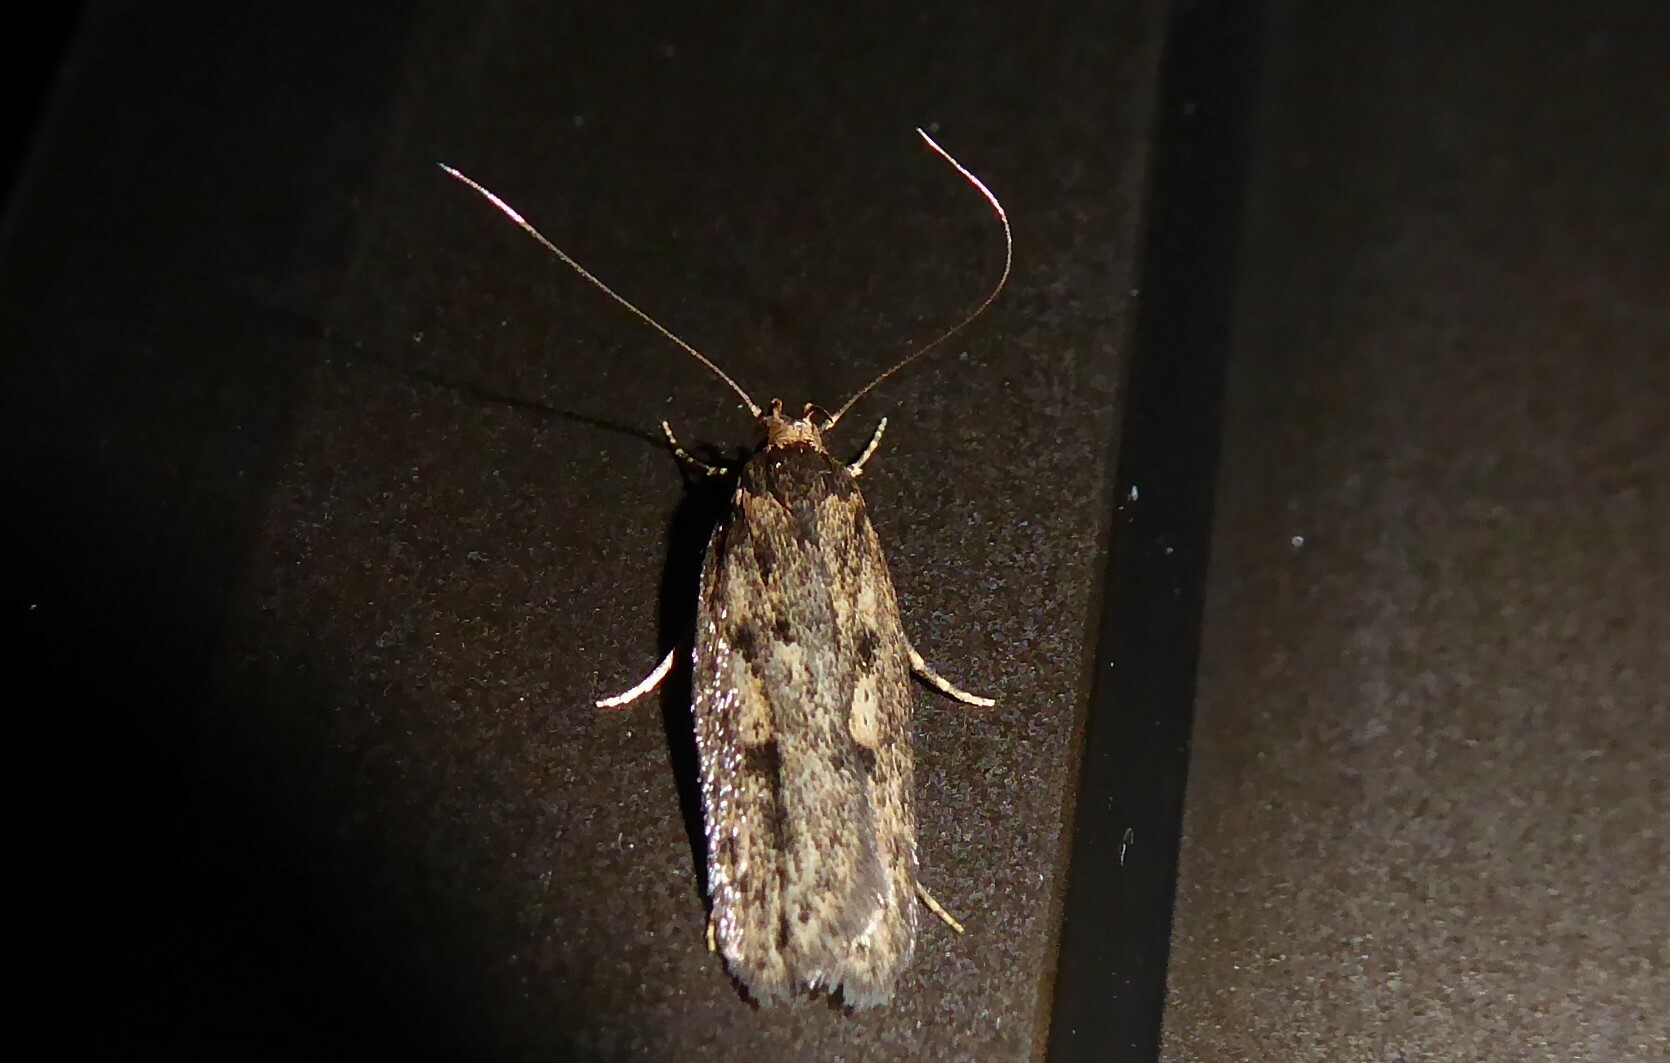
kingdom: Animalia
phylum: Arthropoda
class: Insecta
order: Lepidoptera
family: Oecophoridae
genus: Hofmannophila
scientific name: Hofmannophila pseudospretella
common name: Brown house moth
